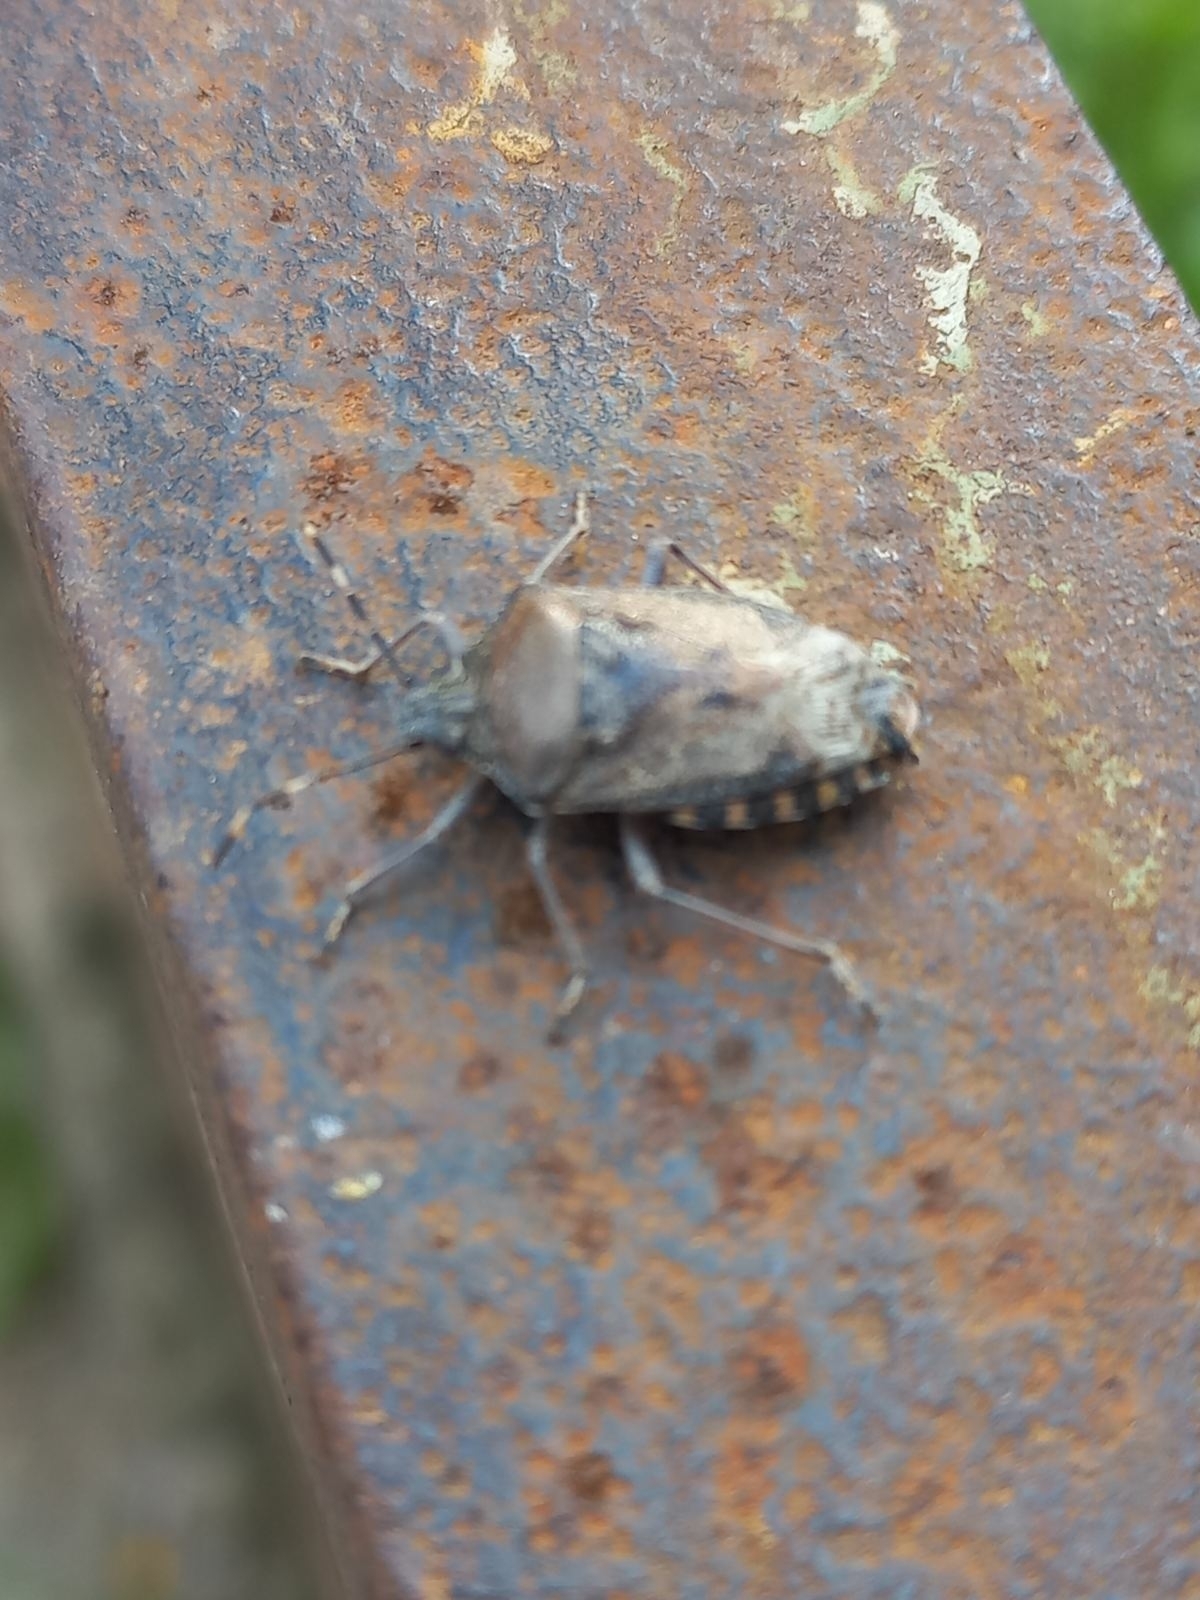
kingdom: Animalia
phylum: Arthropoda
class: Insecta
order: Hemiptera
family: Pentatomidae
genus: Rhaphigaster
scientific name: Rhaphigaster nebulosa
